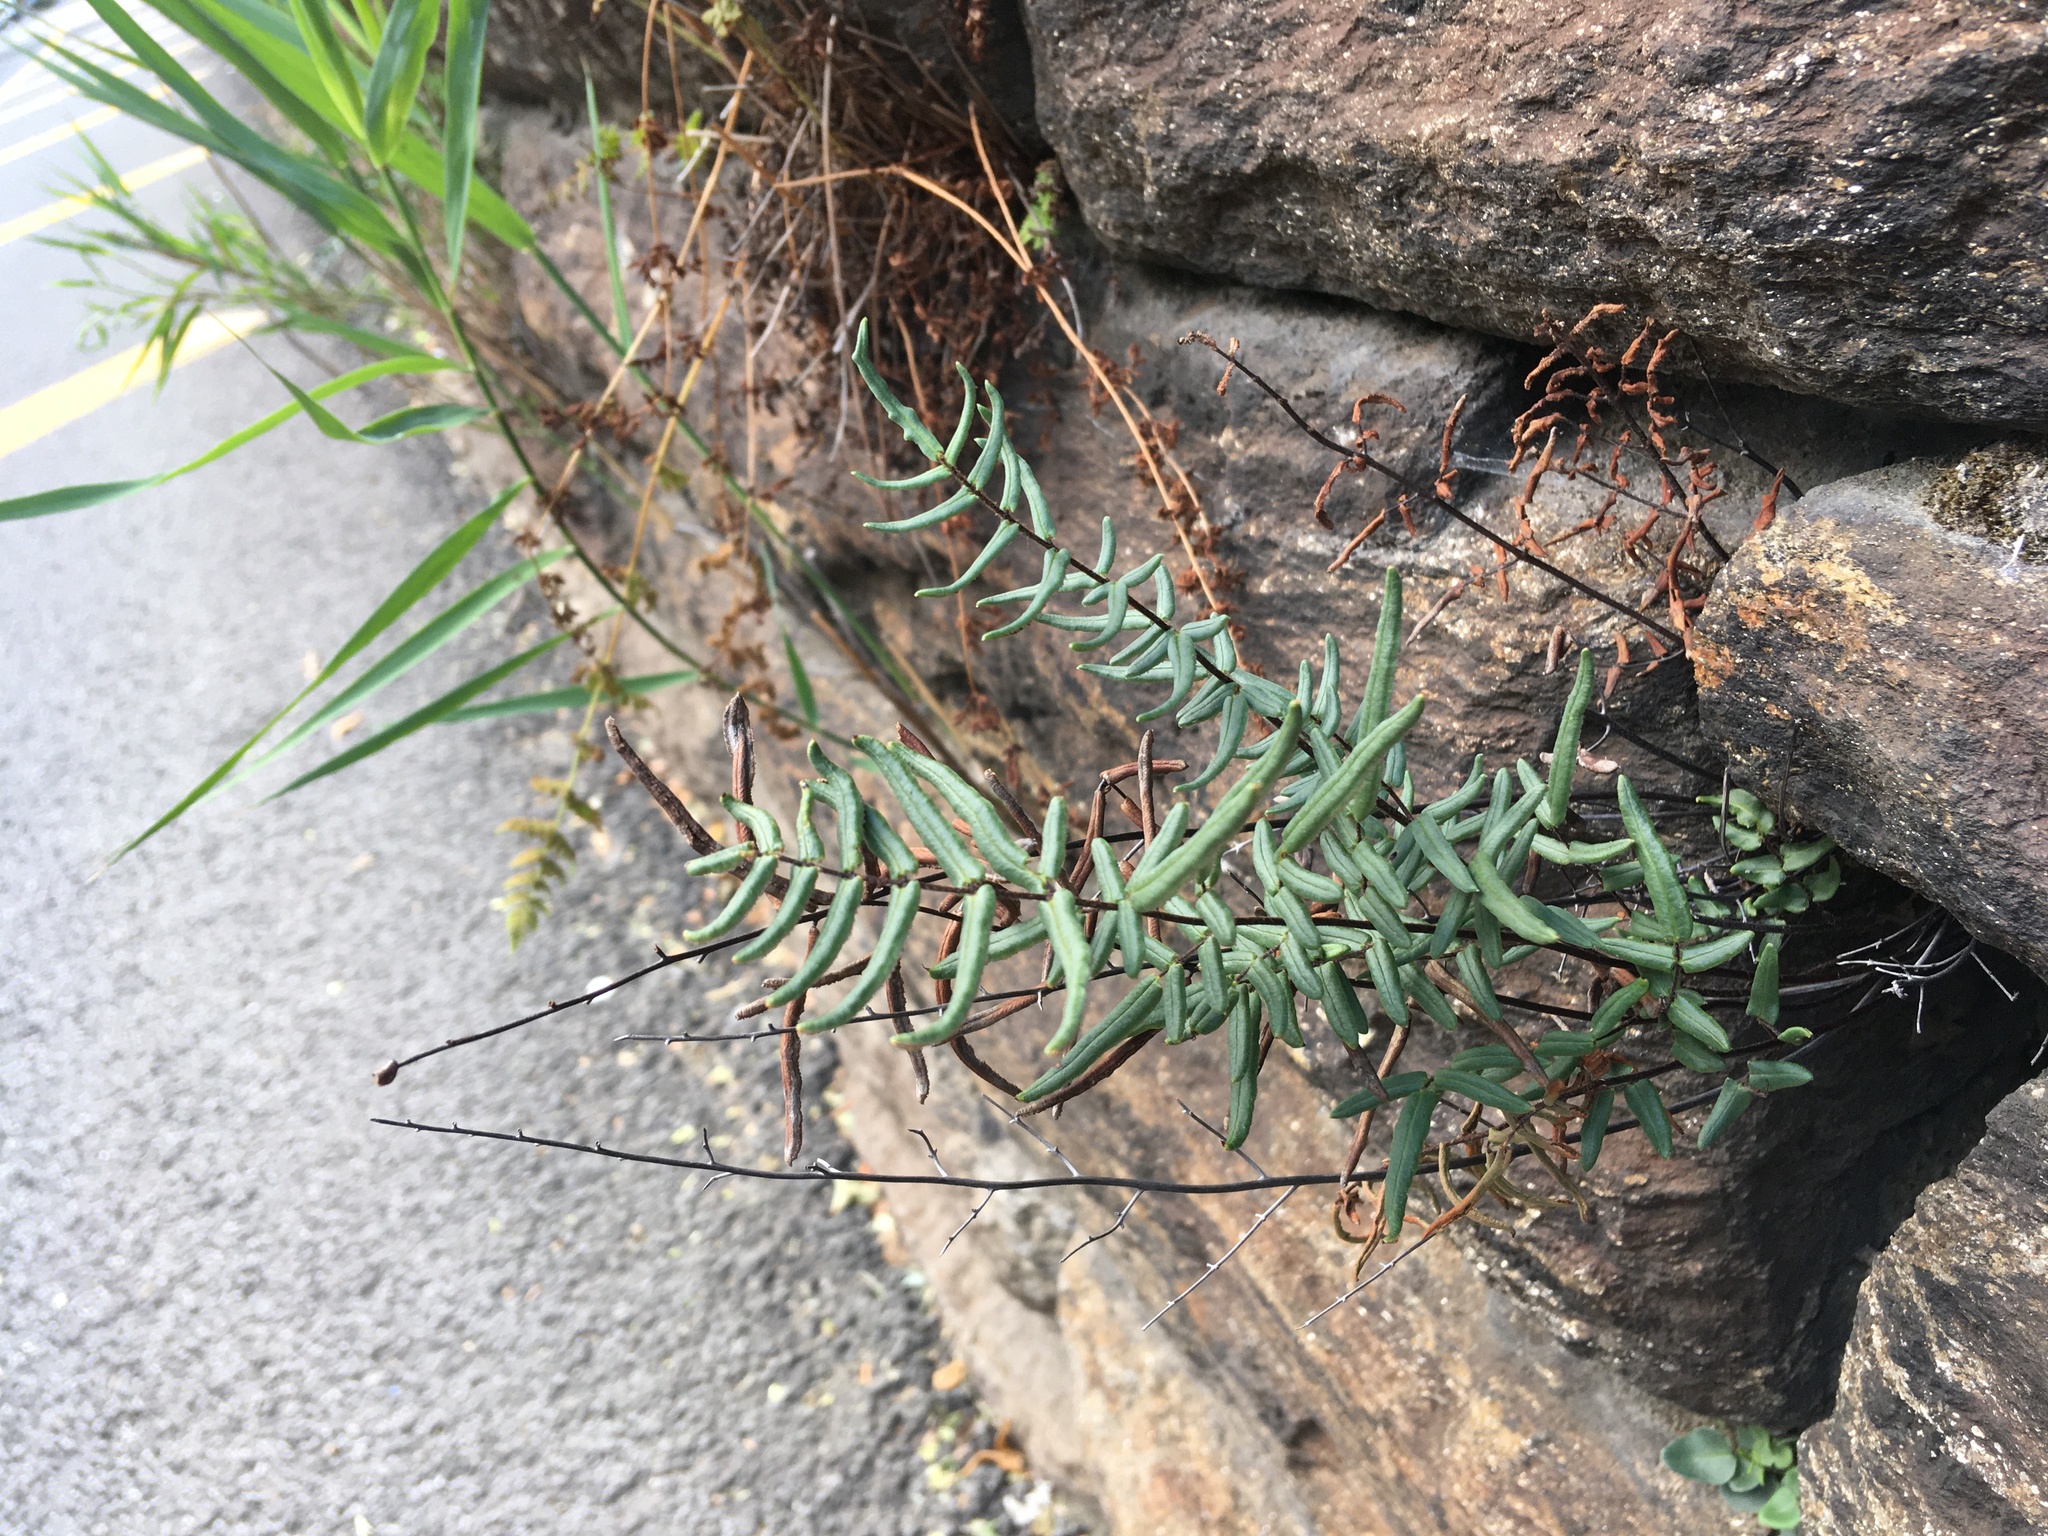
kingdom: Plantae
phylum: Tracheophyta
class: Polypodiopsida
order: Polypodiales
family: Pteridaceae
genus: Pellaea
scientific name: Pellaea atropurpurea
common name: Hairy cliffbrake
